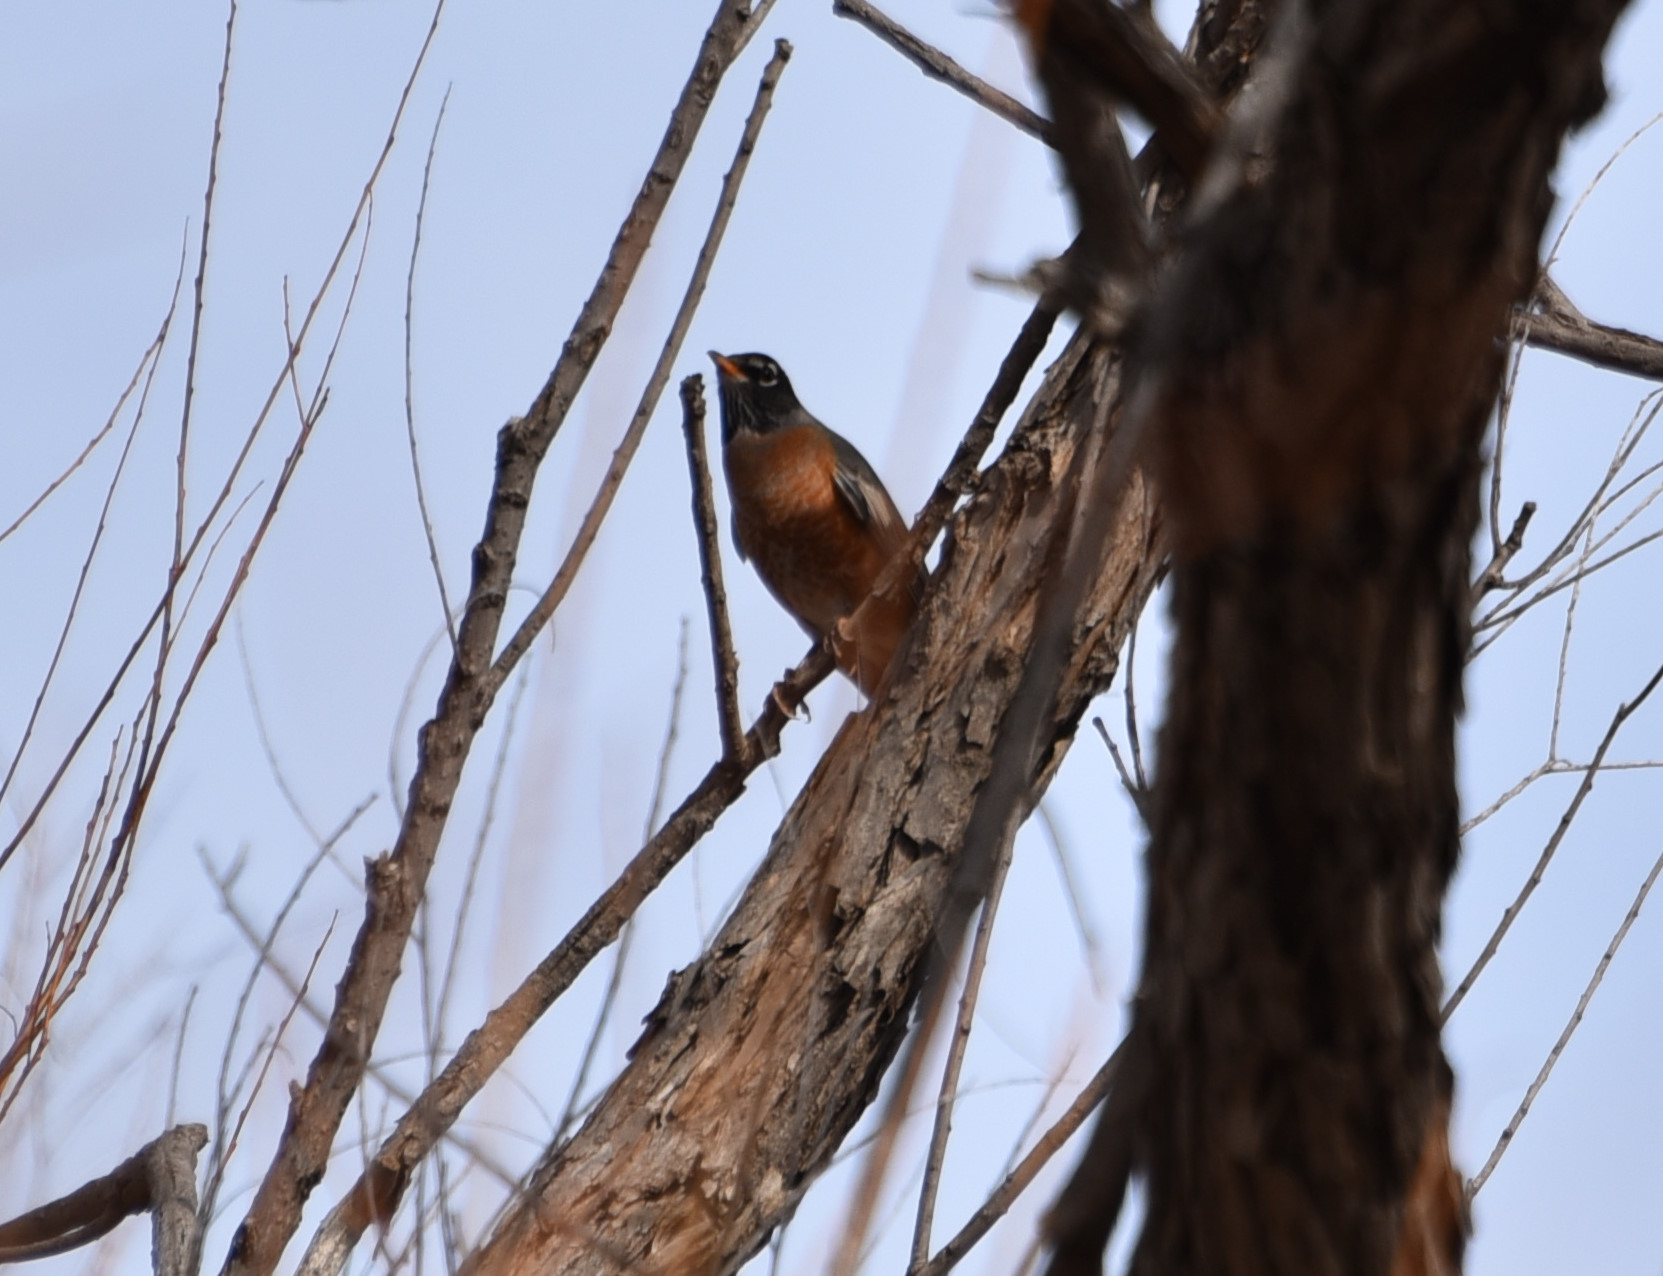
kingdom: Animalia
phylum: Chordata
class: Aves
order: Passeriformes
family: Turdidae
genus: Turdus
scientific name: Turdus migratorius
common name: American robin
